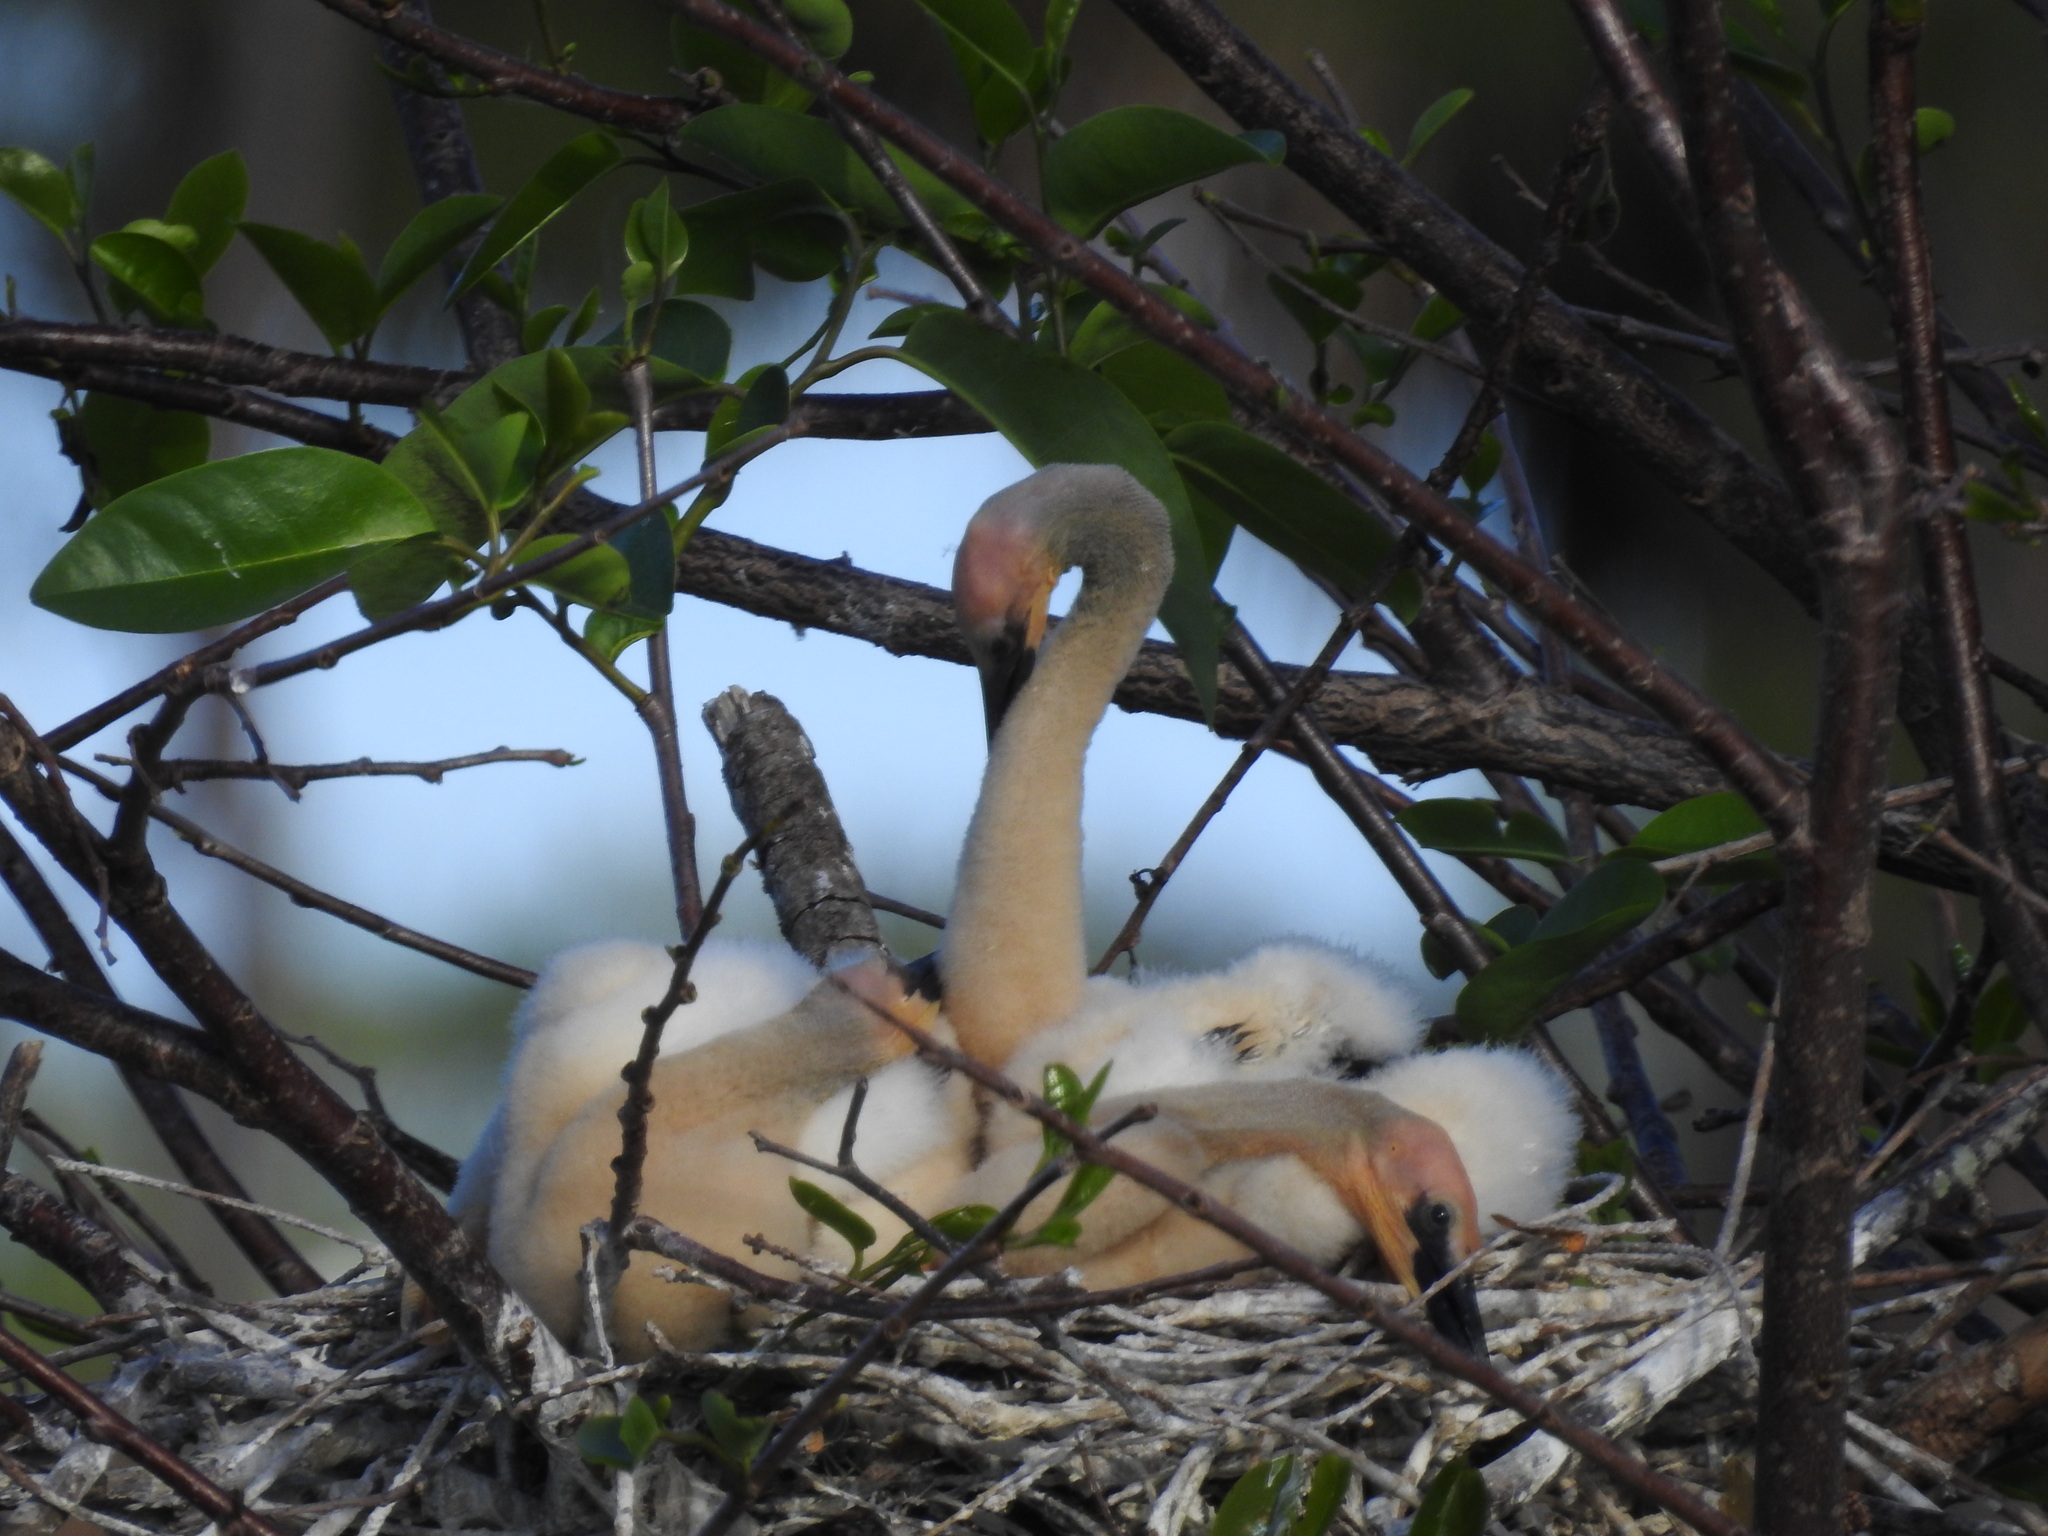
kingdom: Animalia
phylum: Chordata
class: Aves
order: Suliformes
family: Anhingidae
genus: Anhinga
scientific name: Anhinga anhinga
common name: Anhinga
